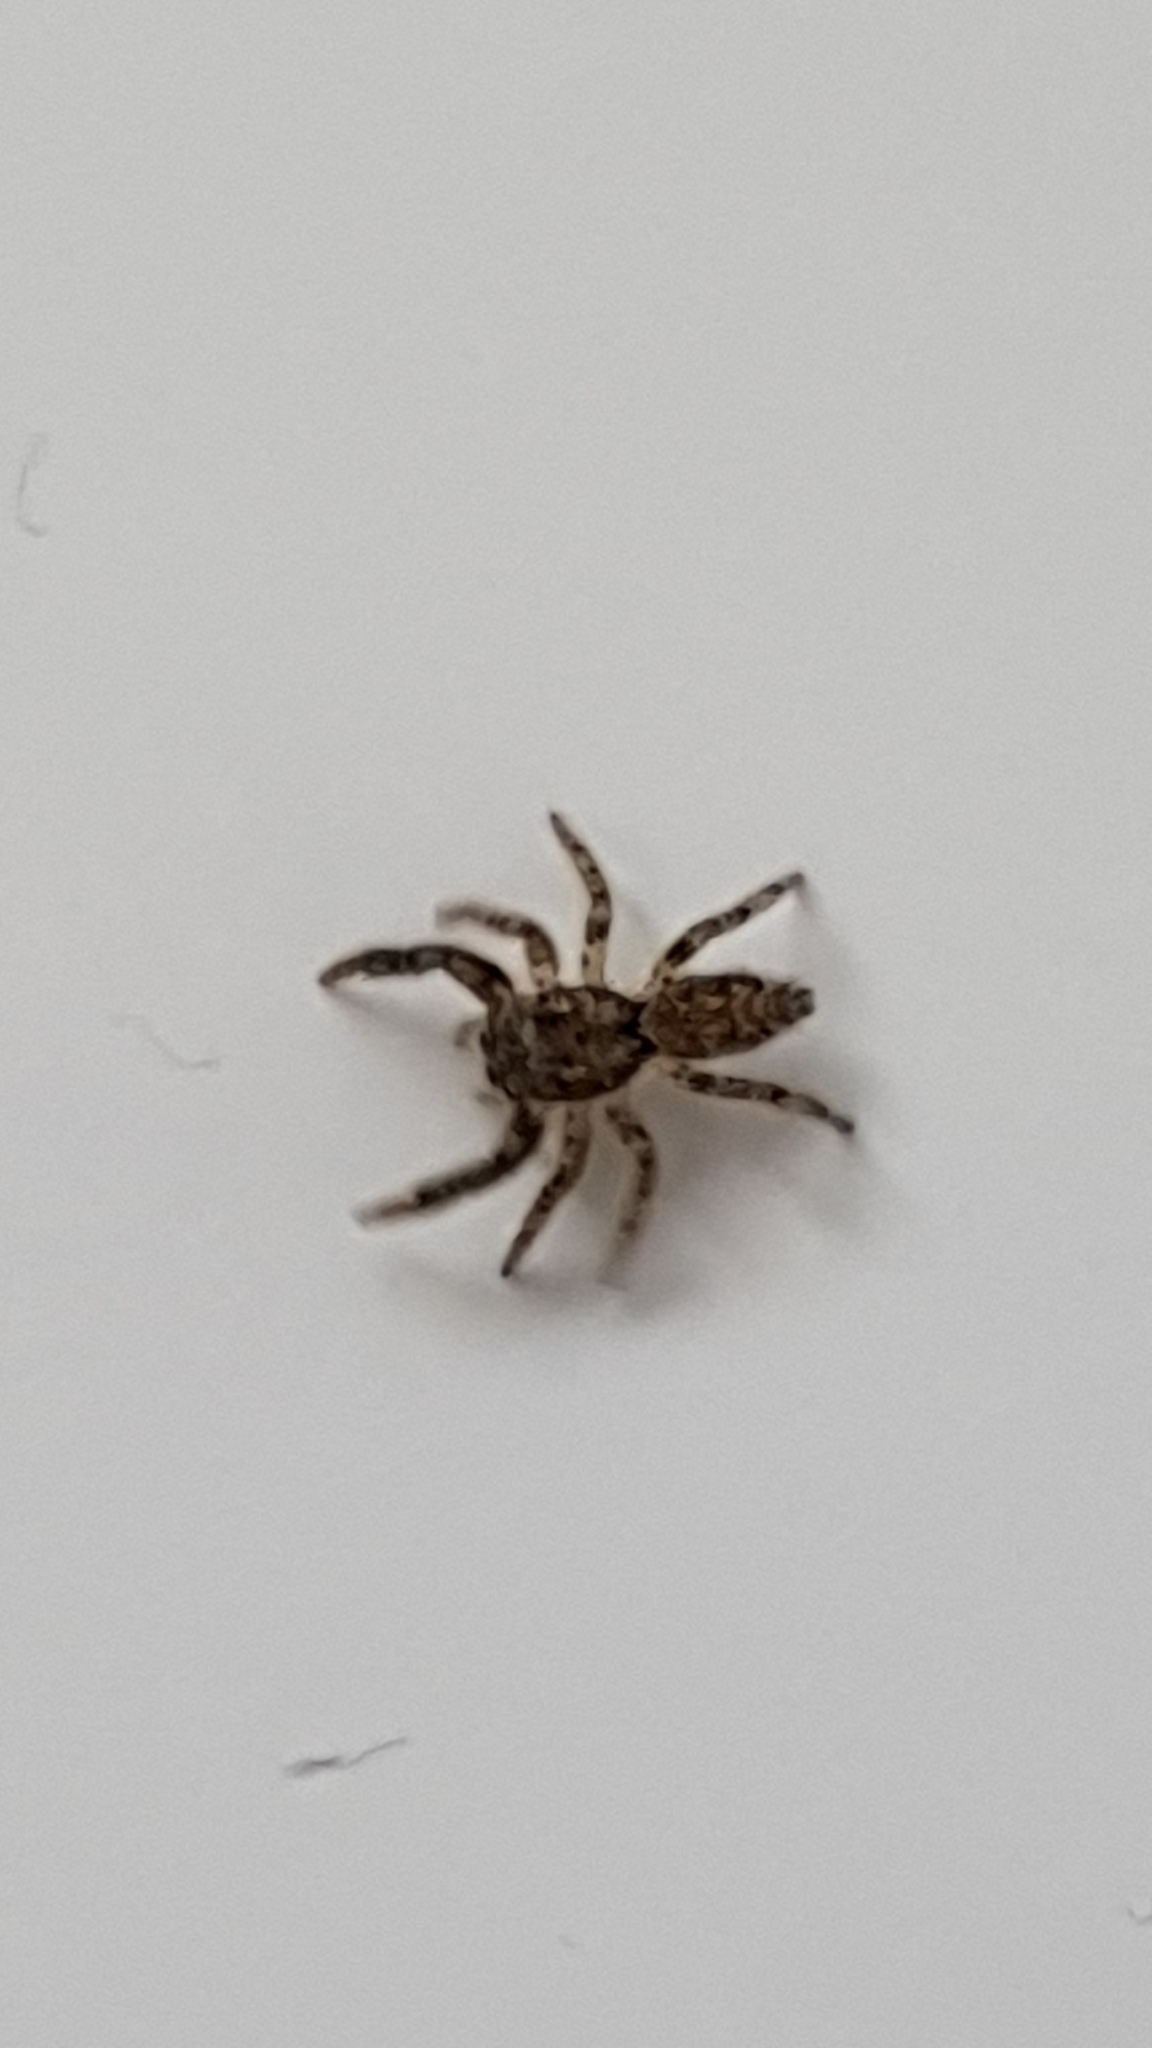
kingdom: Animalia
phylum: Arthropoda
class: Arachnida
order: Araneae
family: Salticidae
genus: Marpissa
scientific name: Marpissa muscosa
